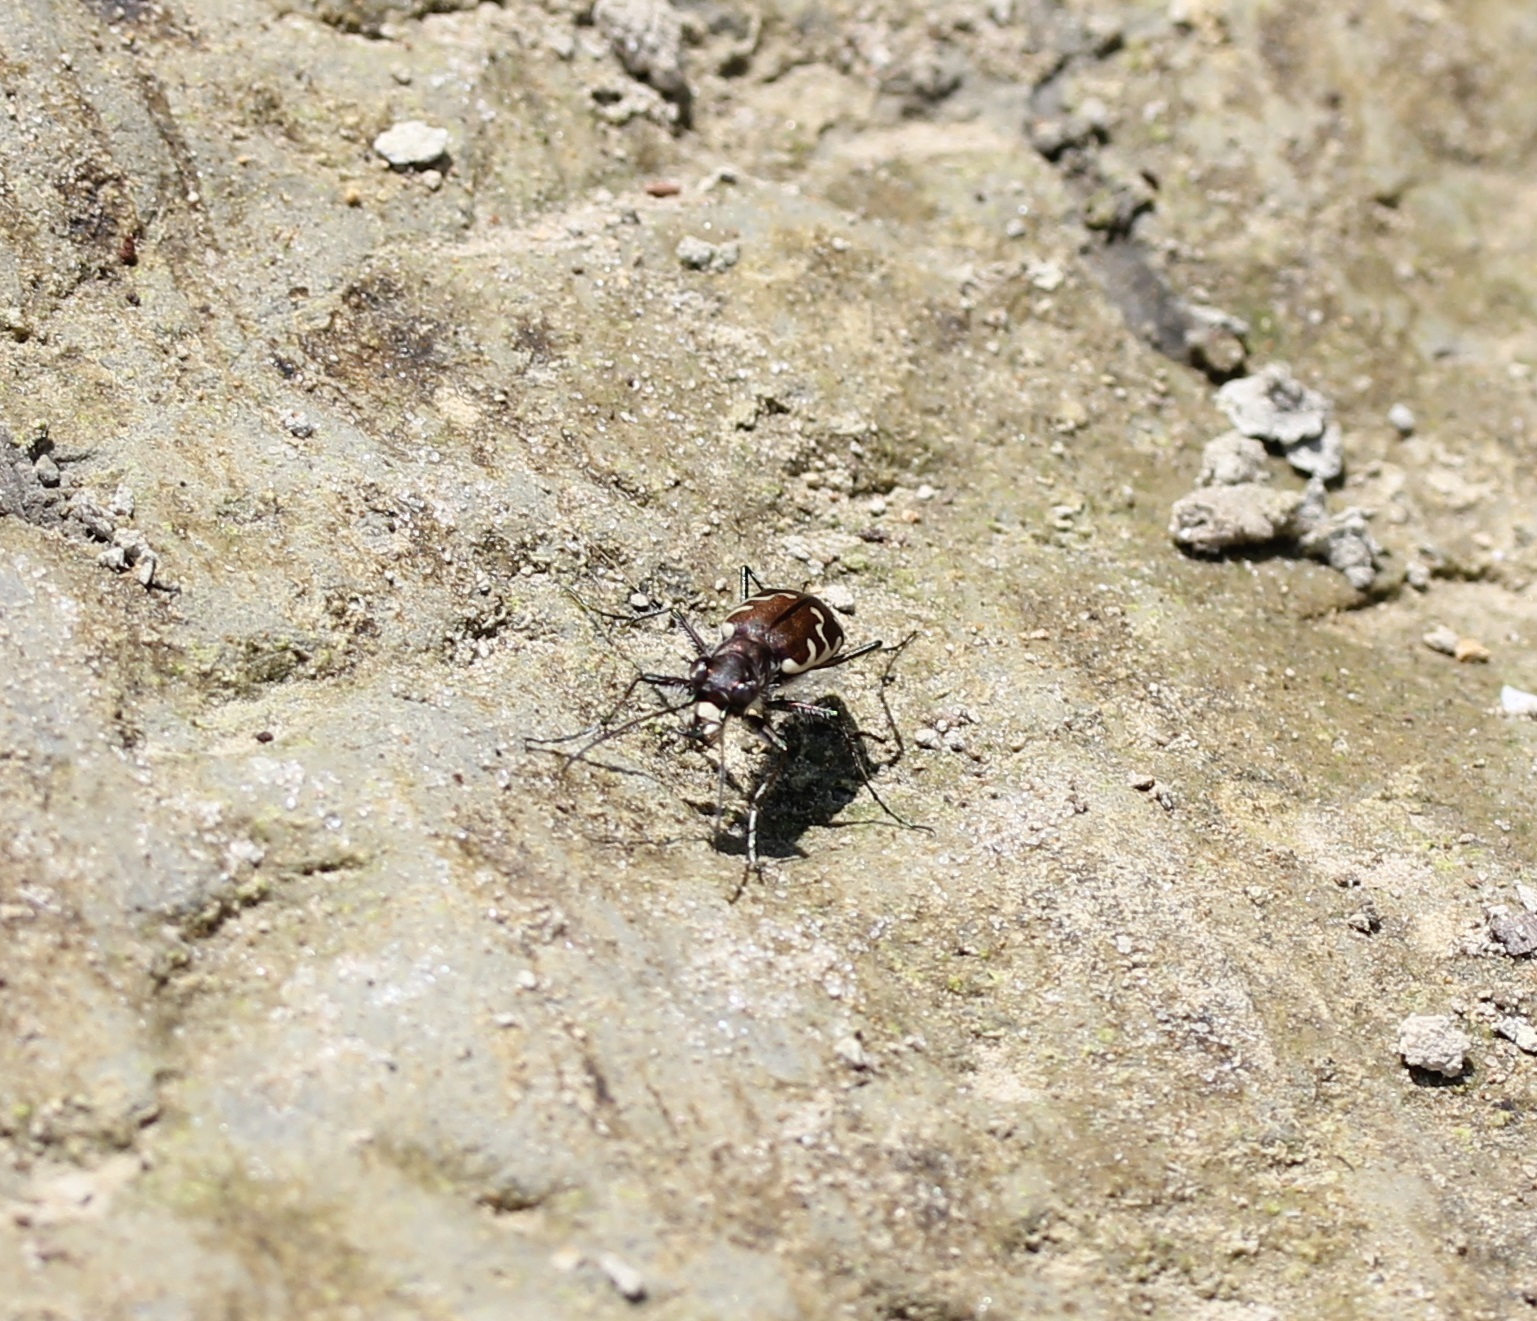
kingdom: Animalia
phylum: Arthropoda
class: Insecta
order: Coleoptera
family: Carabidae
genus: Cicindela
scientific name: Cicindela repanda
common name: Bronzed tiger beetle
